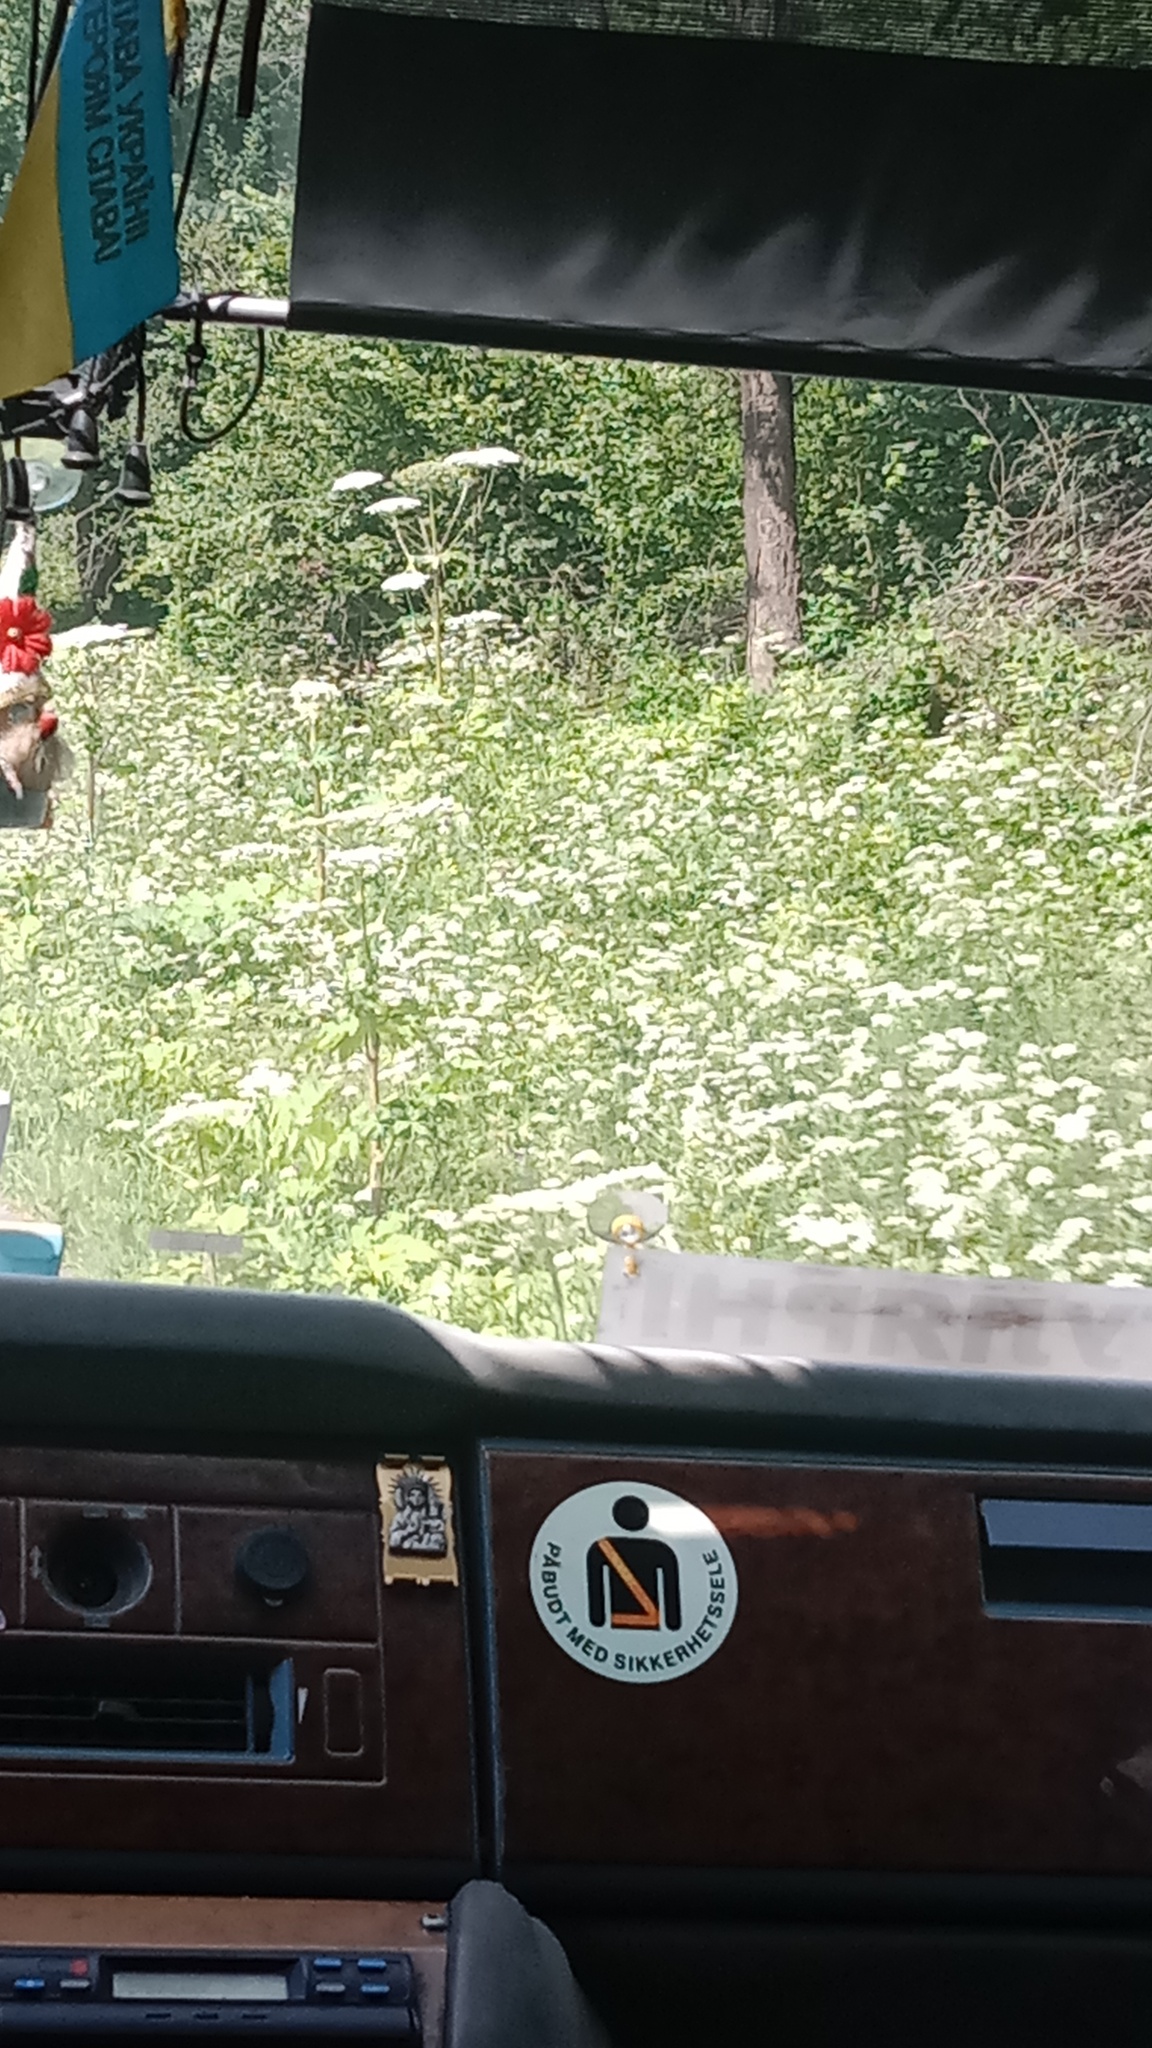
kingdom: Plantae
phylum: Tracheophyta
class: Magnoliopsida
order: Apiales
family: Apiaceae
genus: Heracleum
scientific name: Heracleum sosnowskyi
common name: Sosnowsky's hogweed
